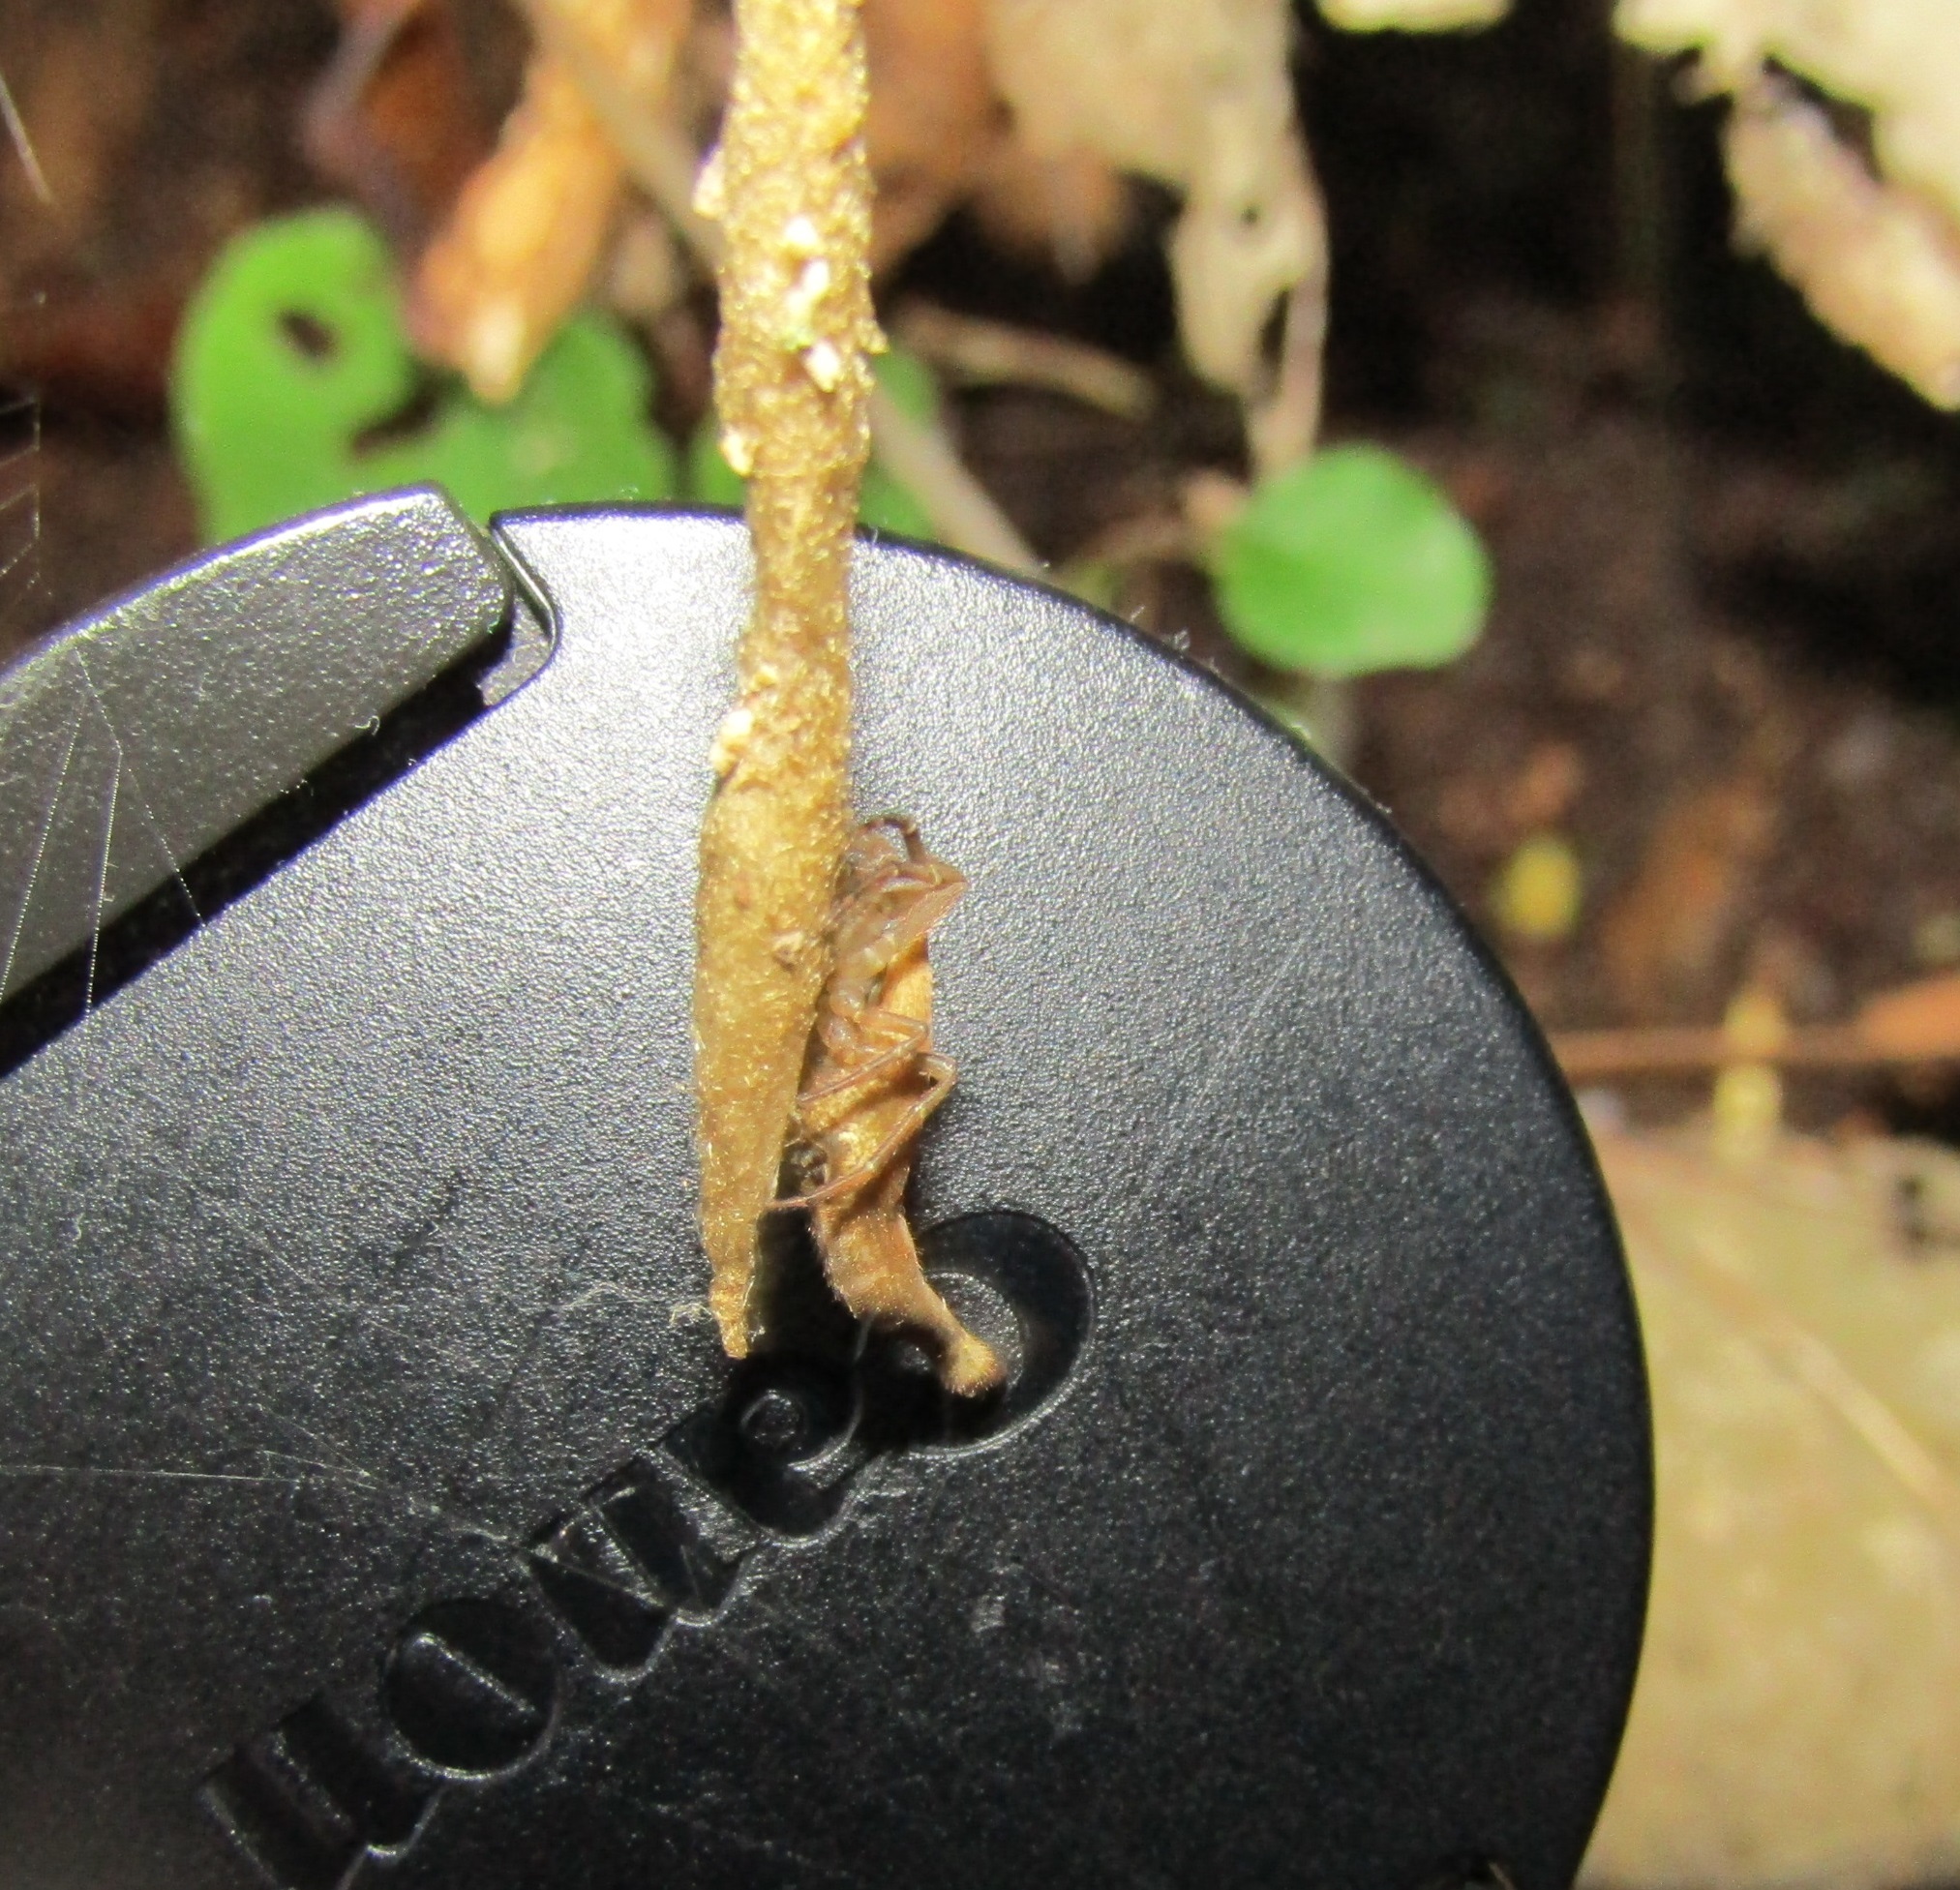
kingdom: Animalia
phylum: Arthropoda
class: Arachnida
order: Araneae
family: Araneidae
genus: Arachnura
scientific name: Arachnura feredayi
